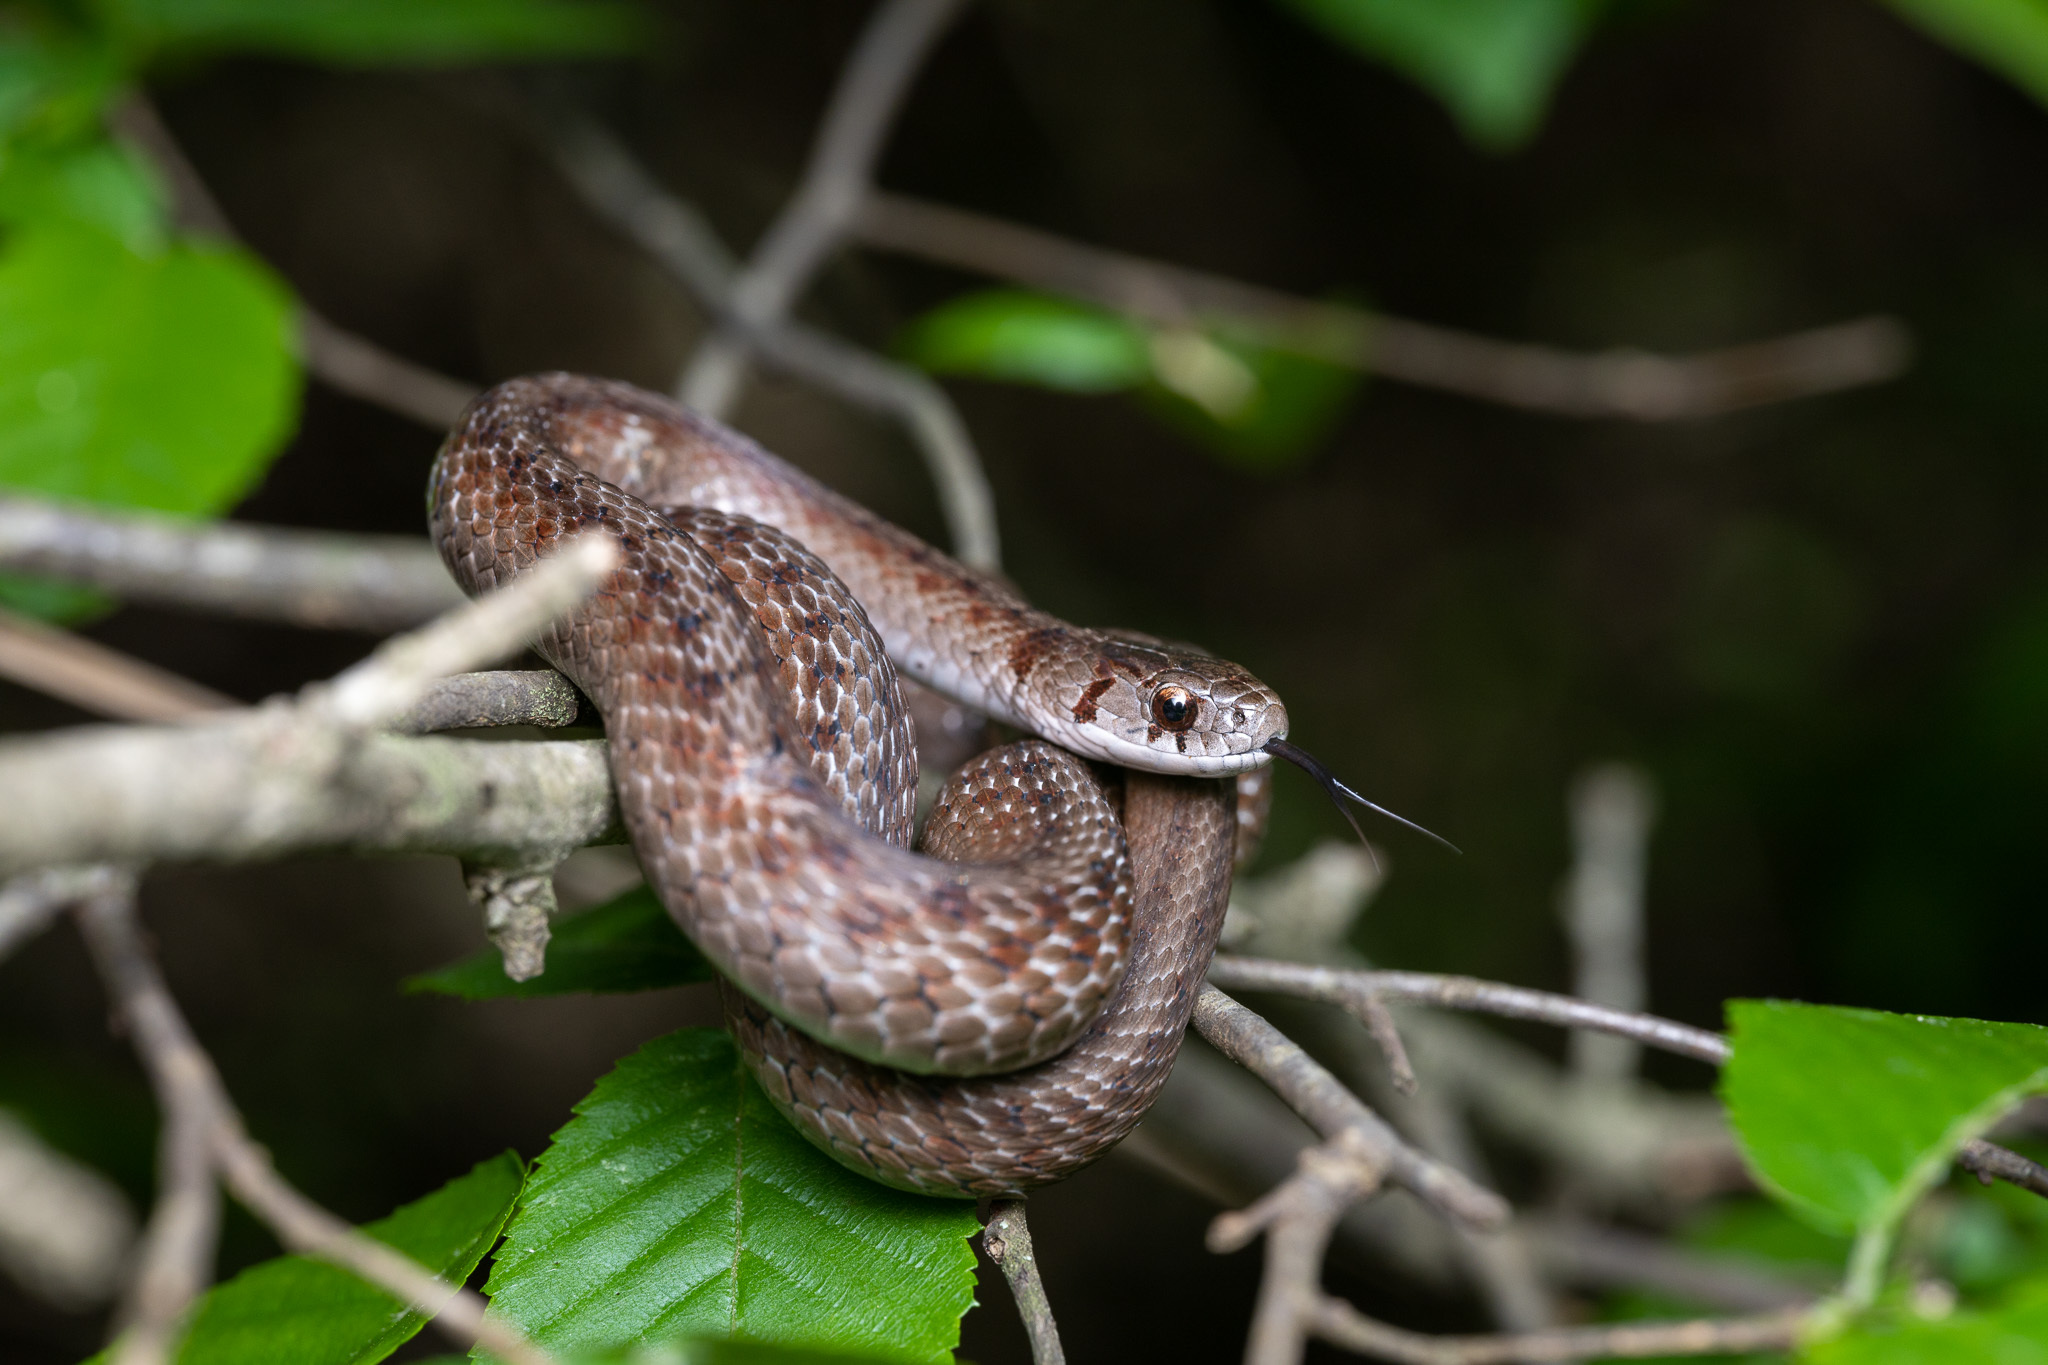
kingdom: Animalia
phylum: Chordata
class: Squamata
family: Colubridae
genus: Storeria
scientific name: Storeria dekayi
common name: (dekay’s) brown snake
